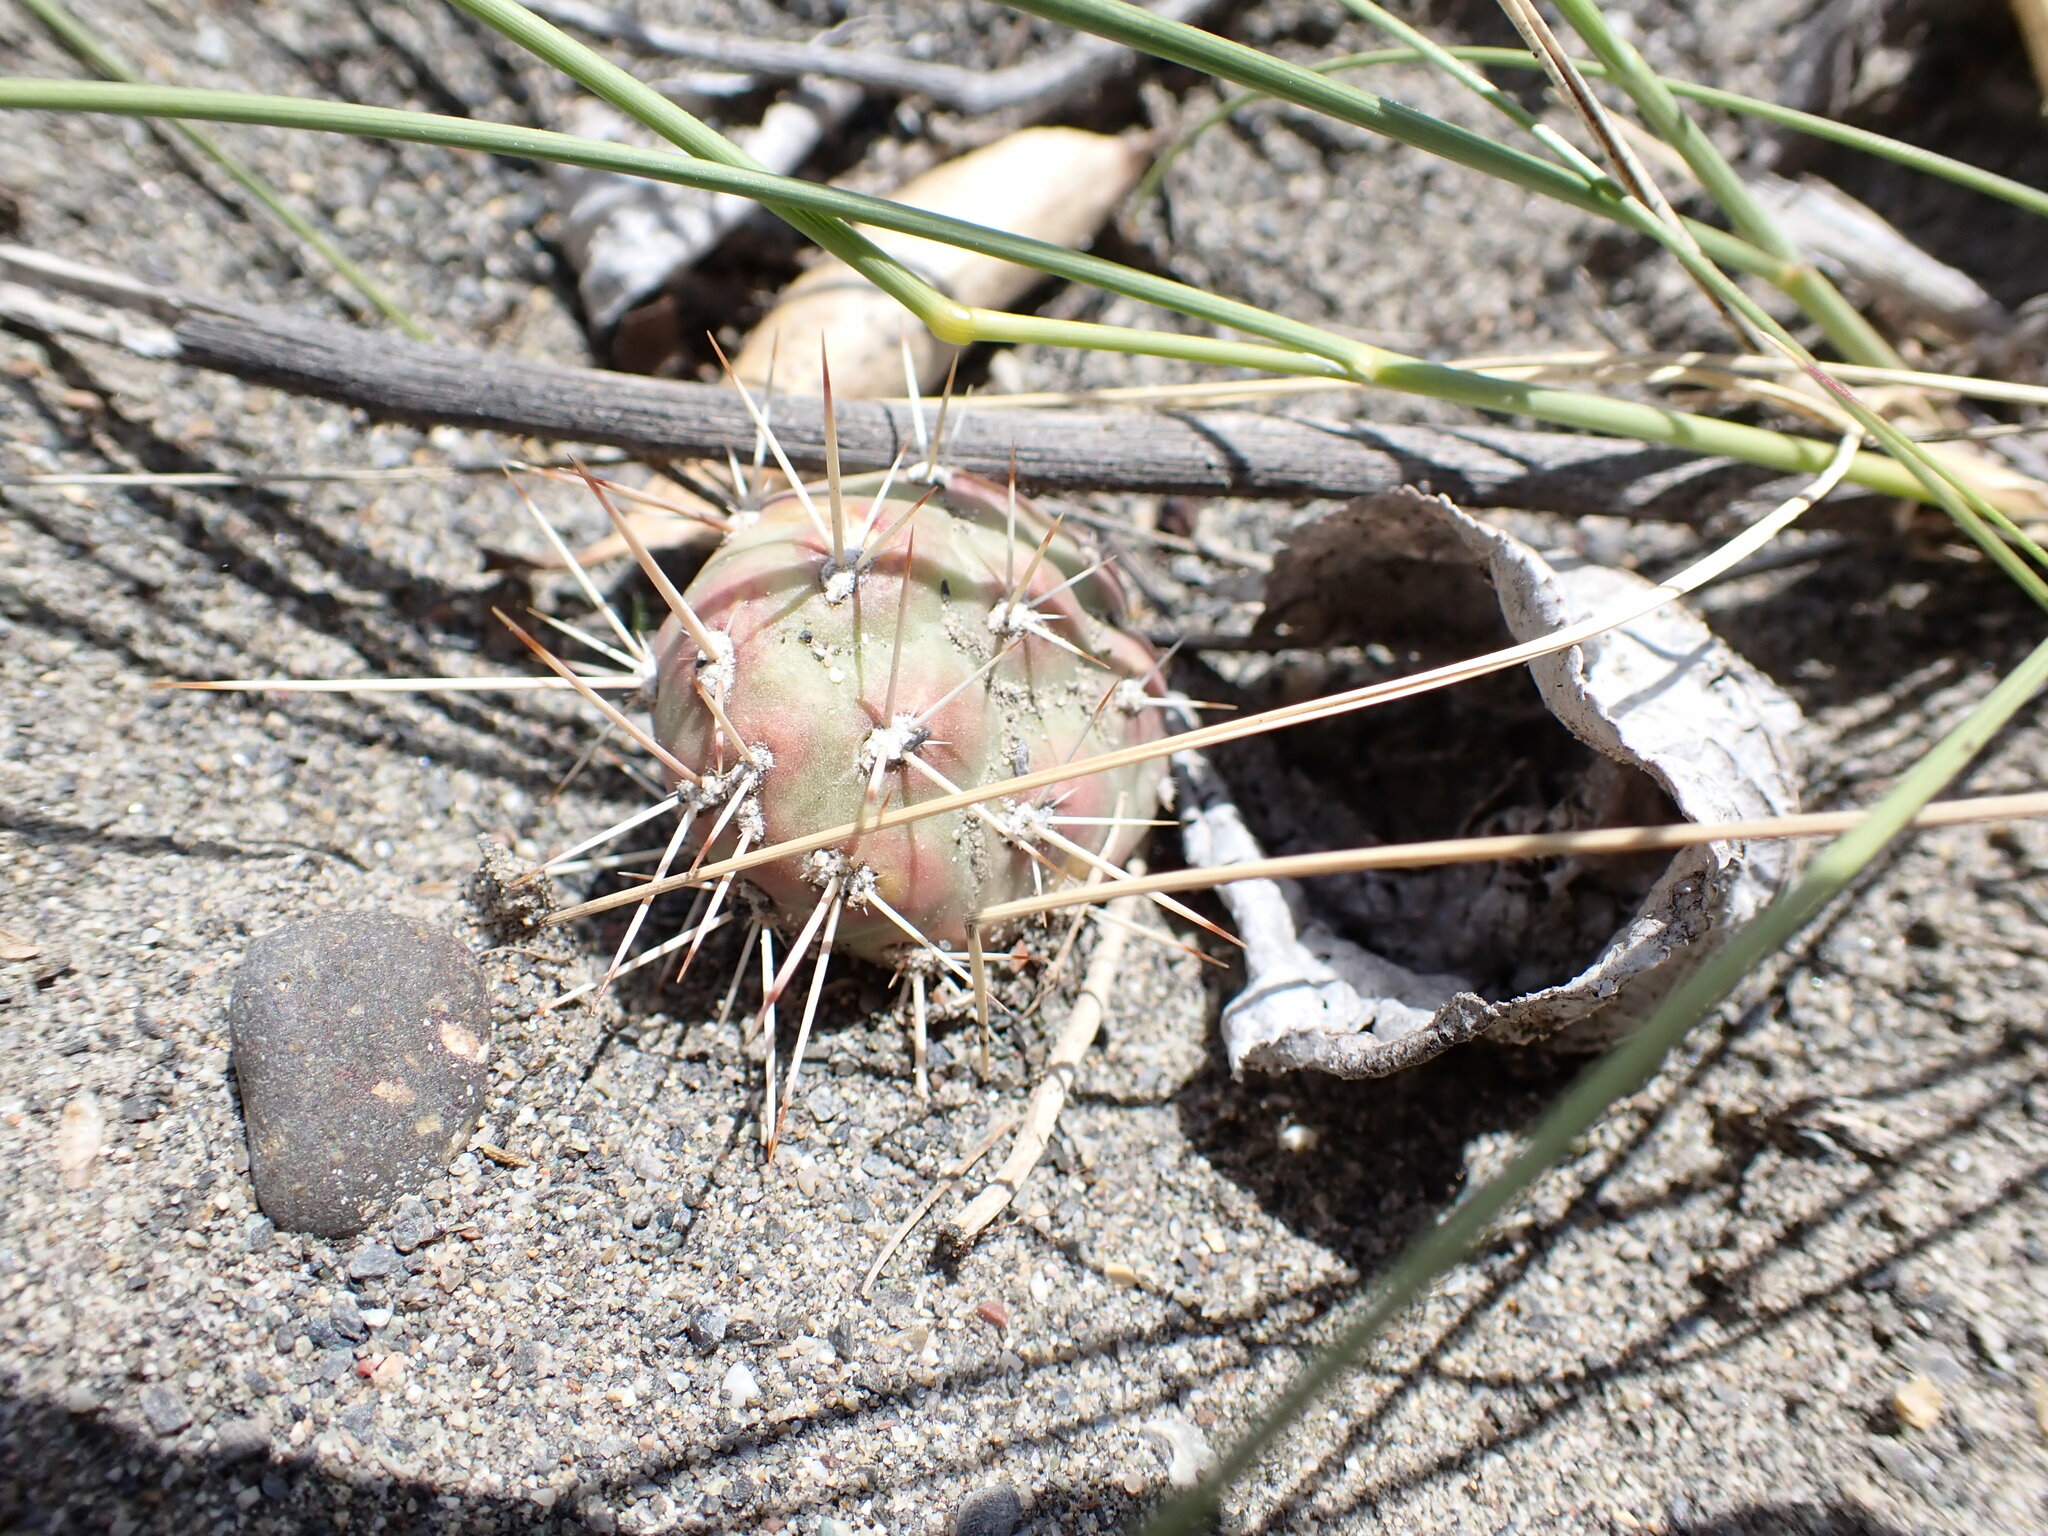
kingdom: Plantae
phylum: Tracheophyta
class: Magnoliopsida
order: Caryophyllales
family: Cactaceae
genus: Opuntia
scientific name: Opuntia fragilis
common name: Brittle cactus
